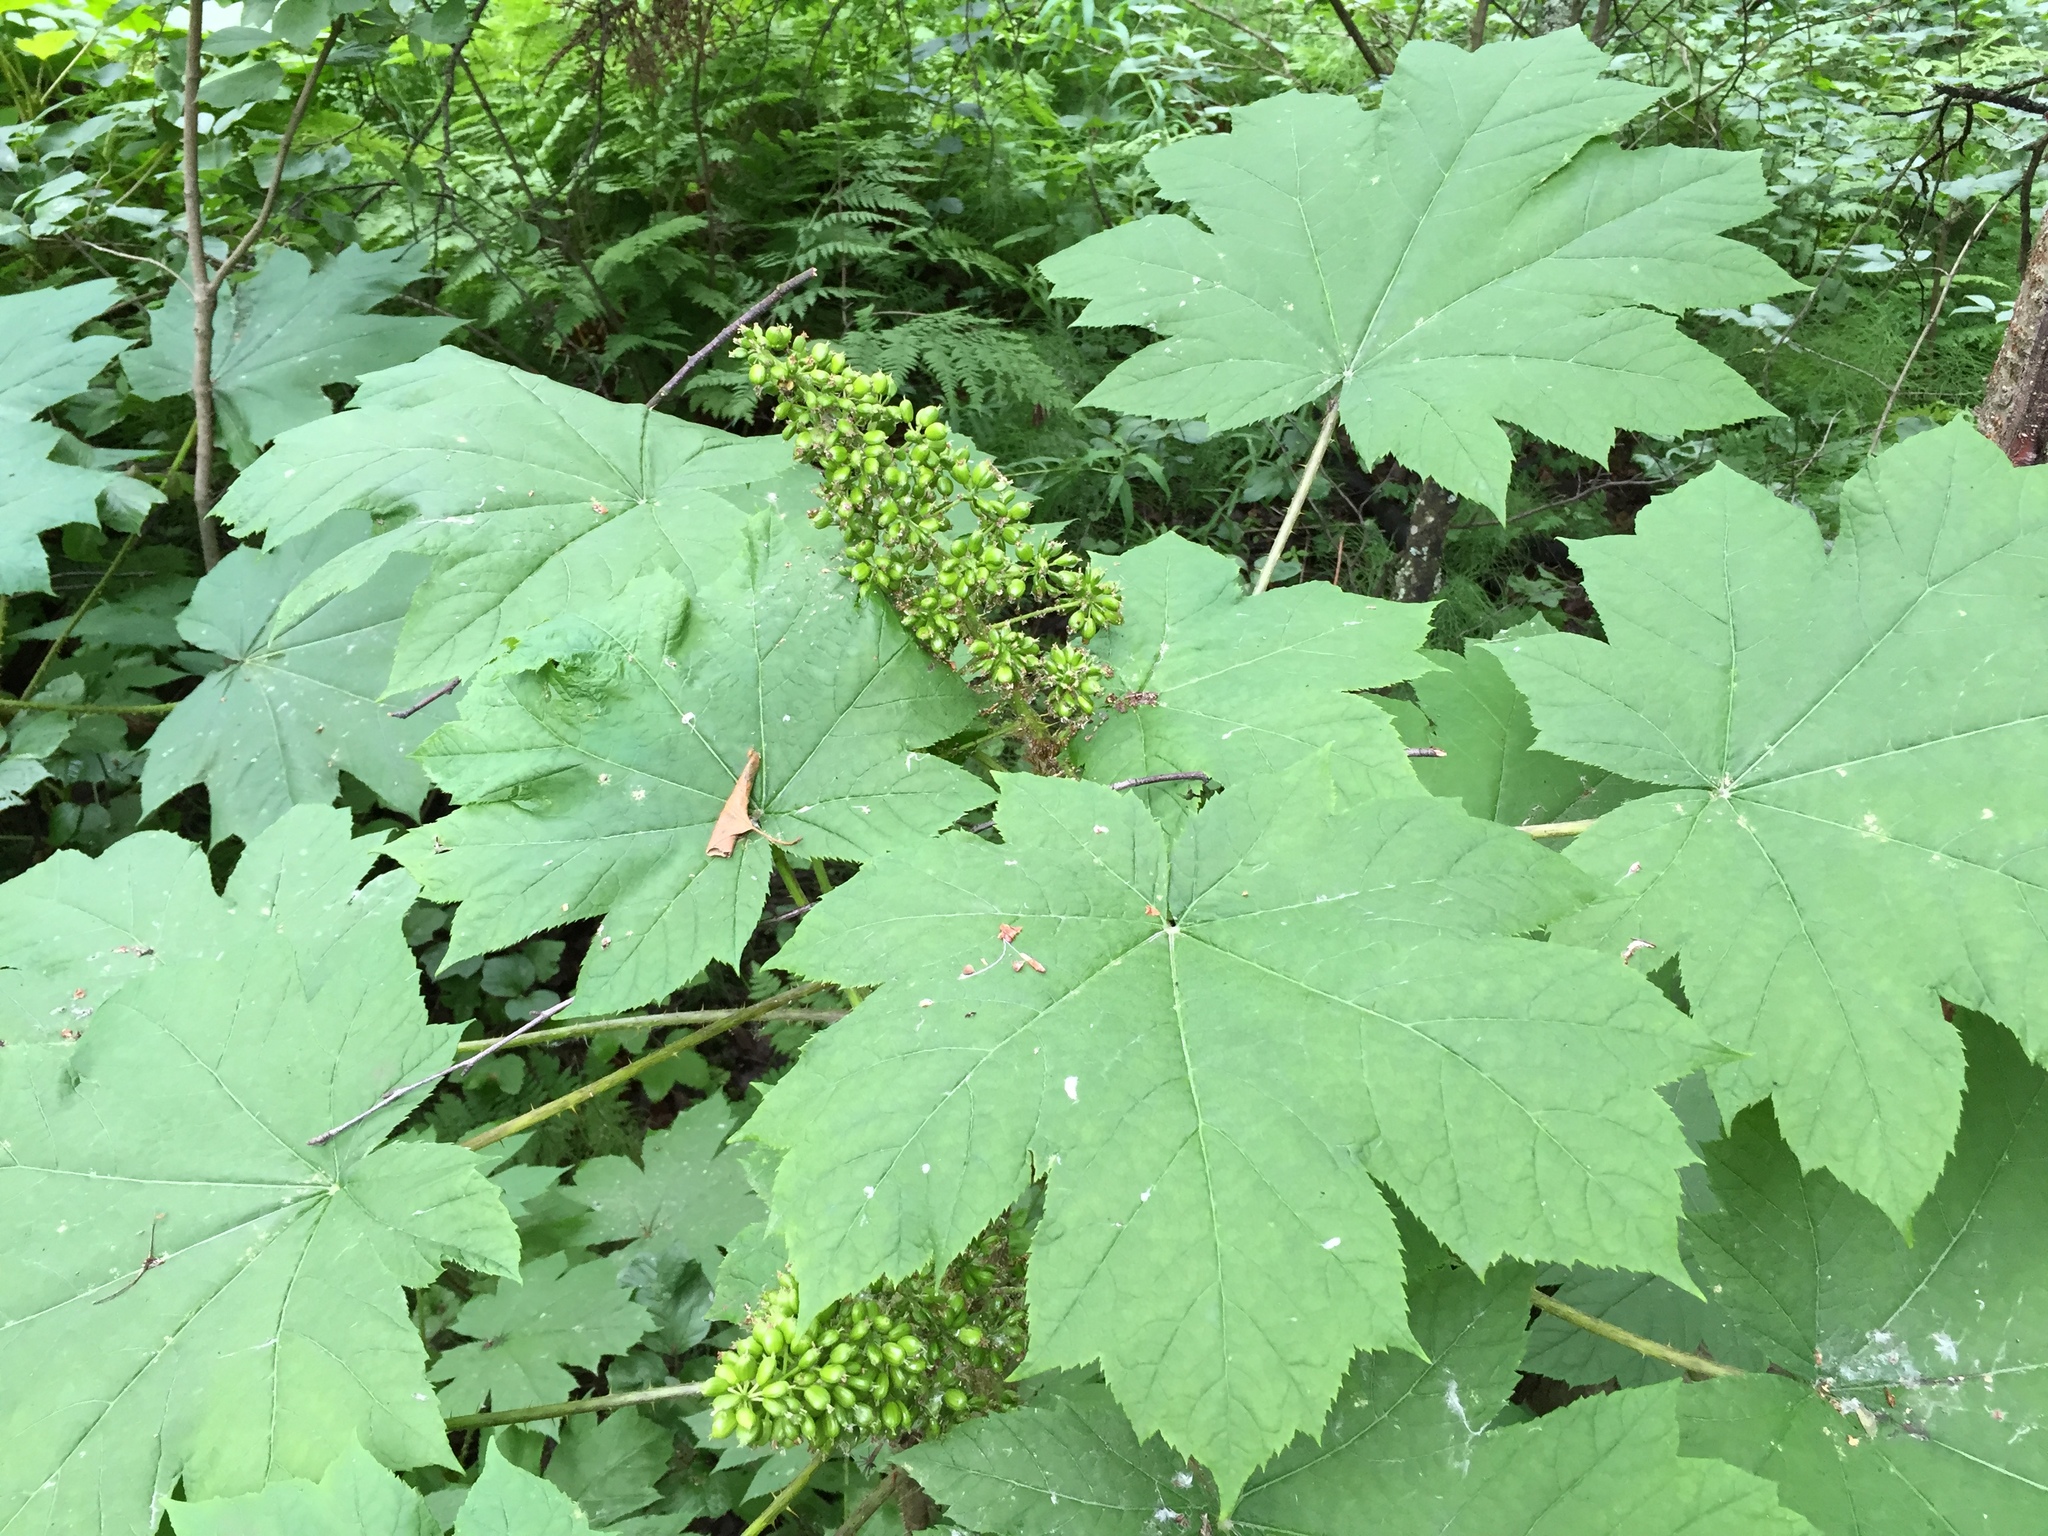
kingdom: Plantae
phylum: Tracheophyta
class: Magnoliopsida
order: Apiales
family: Araliaceae
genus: Oplopanax
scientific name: Oplopanax horridus
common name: Devil's walking-stick
